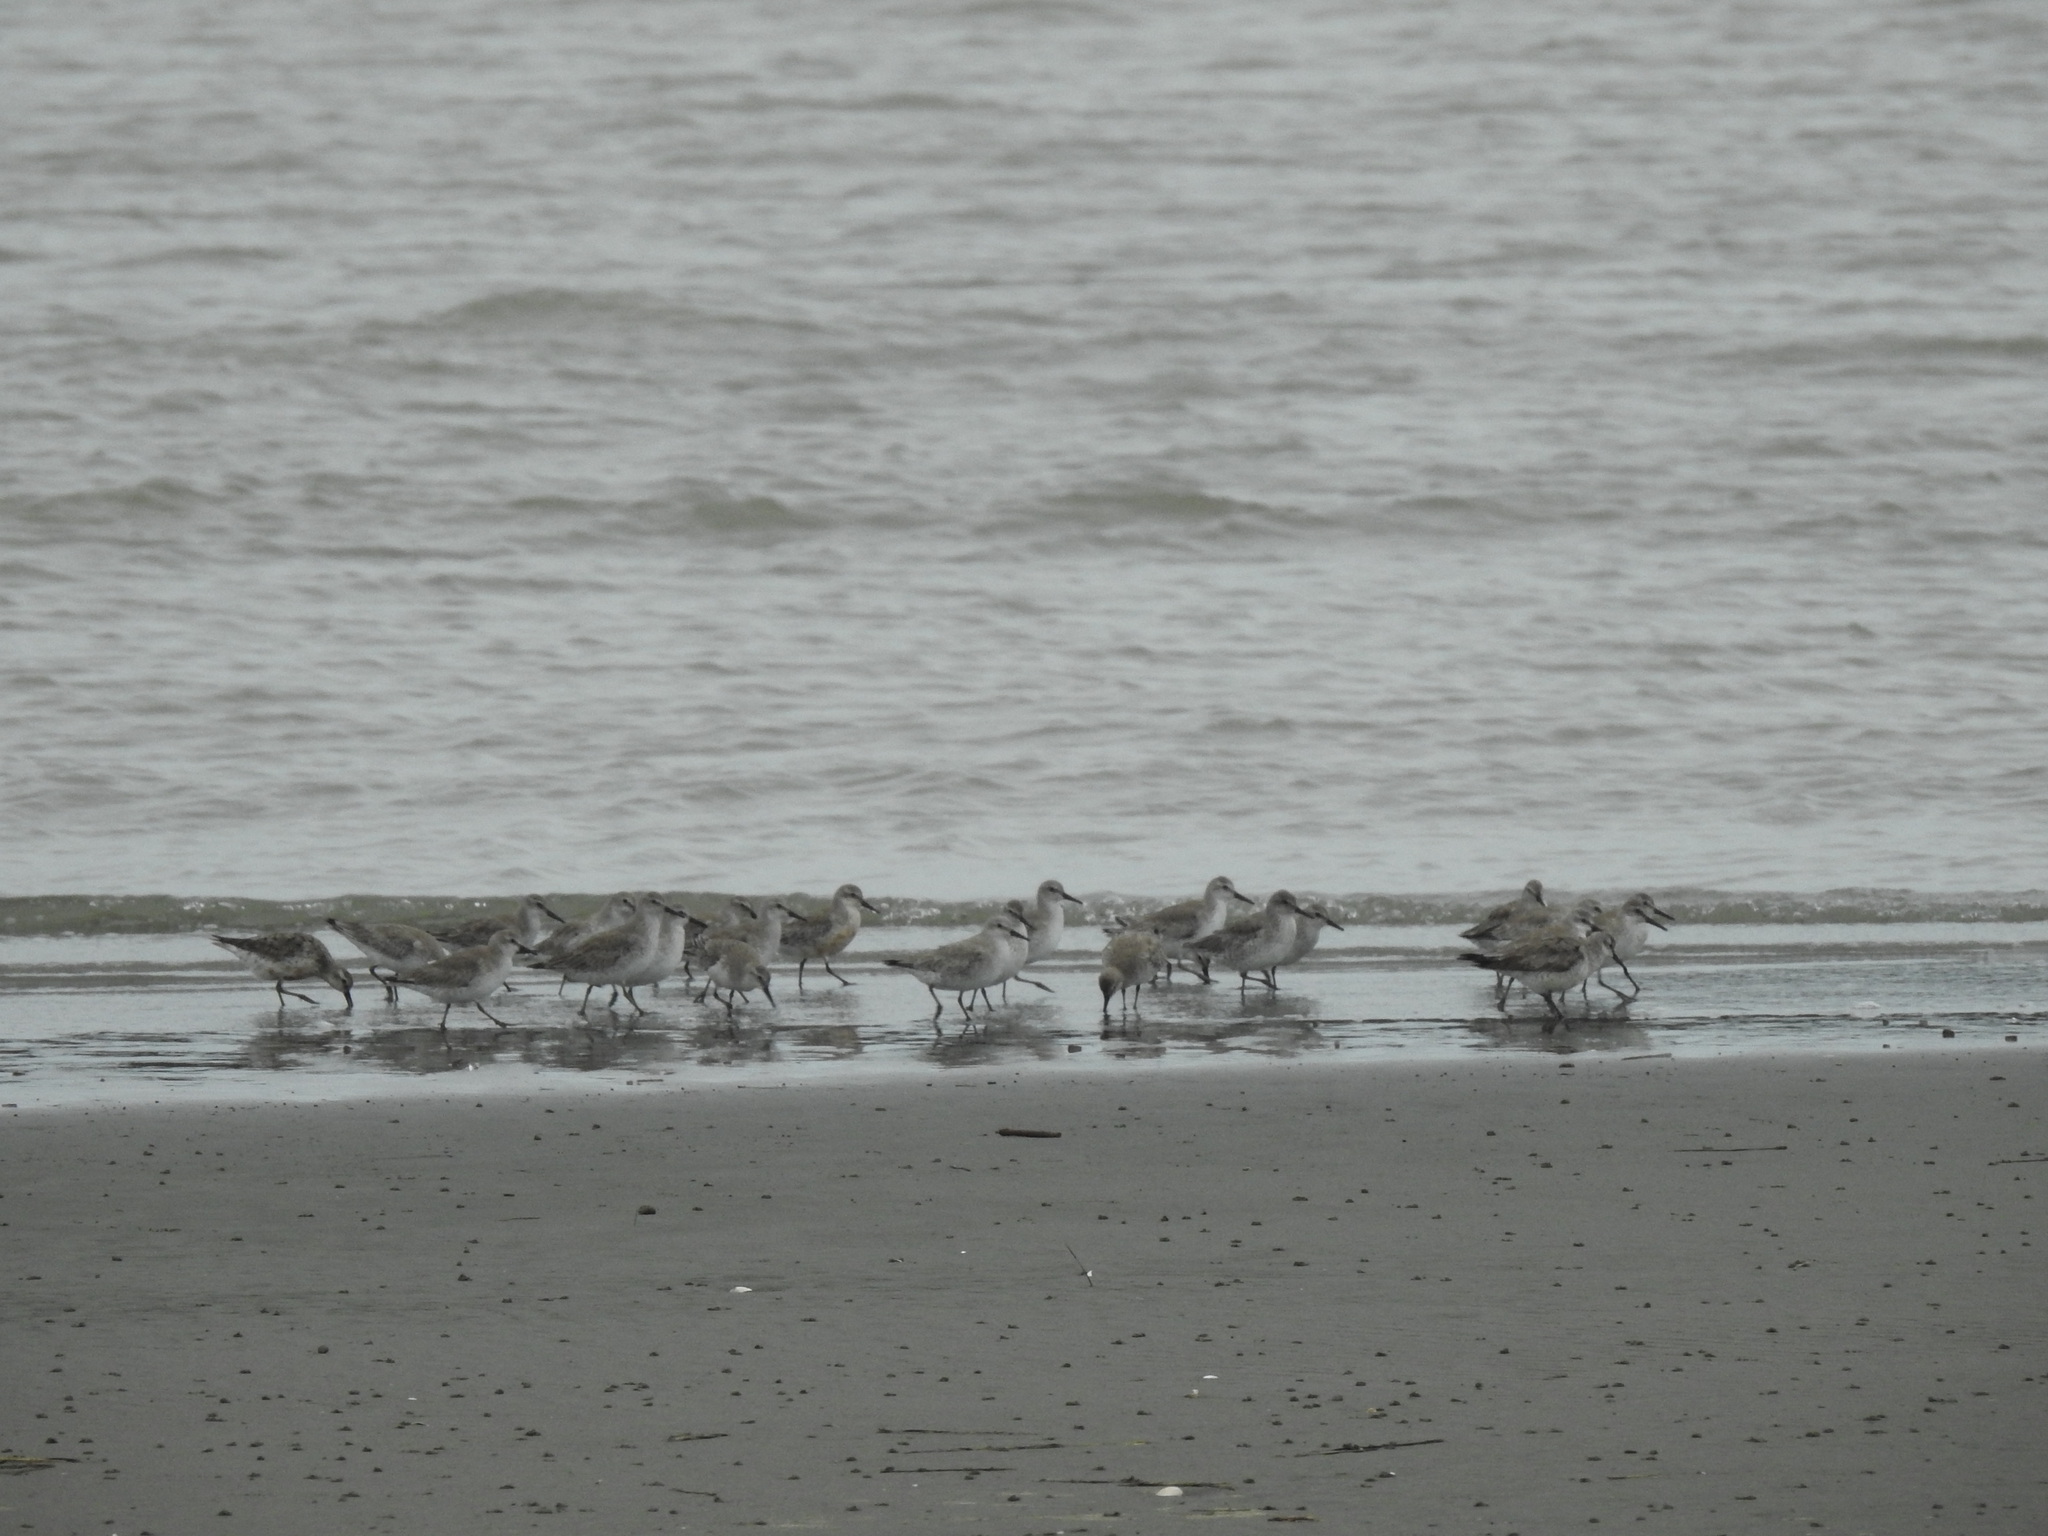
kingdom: Animalia
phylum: Chordata
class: Aves
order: Charadriiformes
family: Scolopacidae
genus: Calidris
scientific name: Calidris canutus
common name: Red knot
